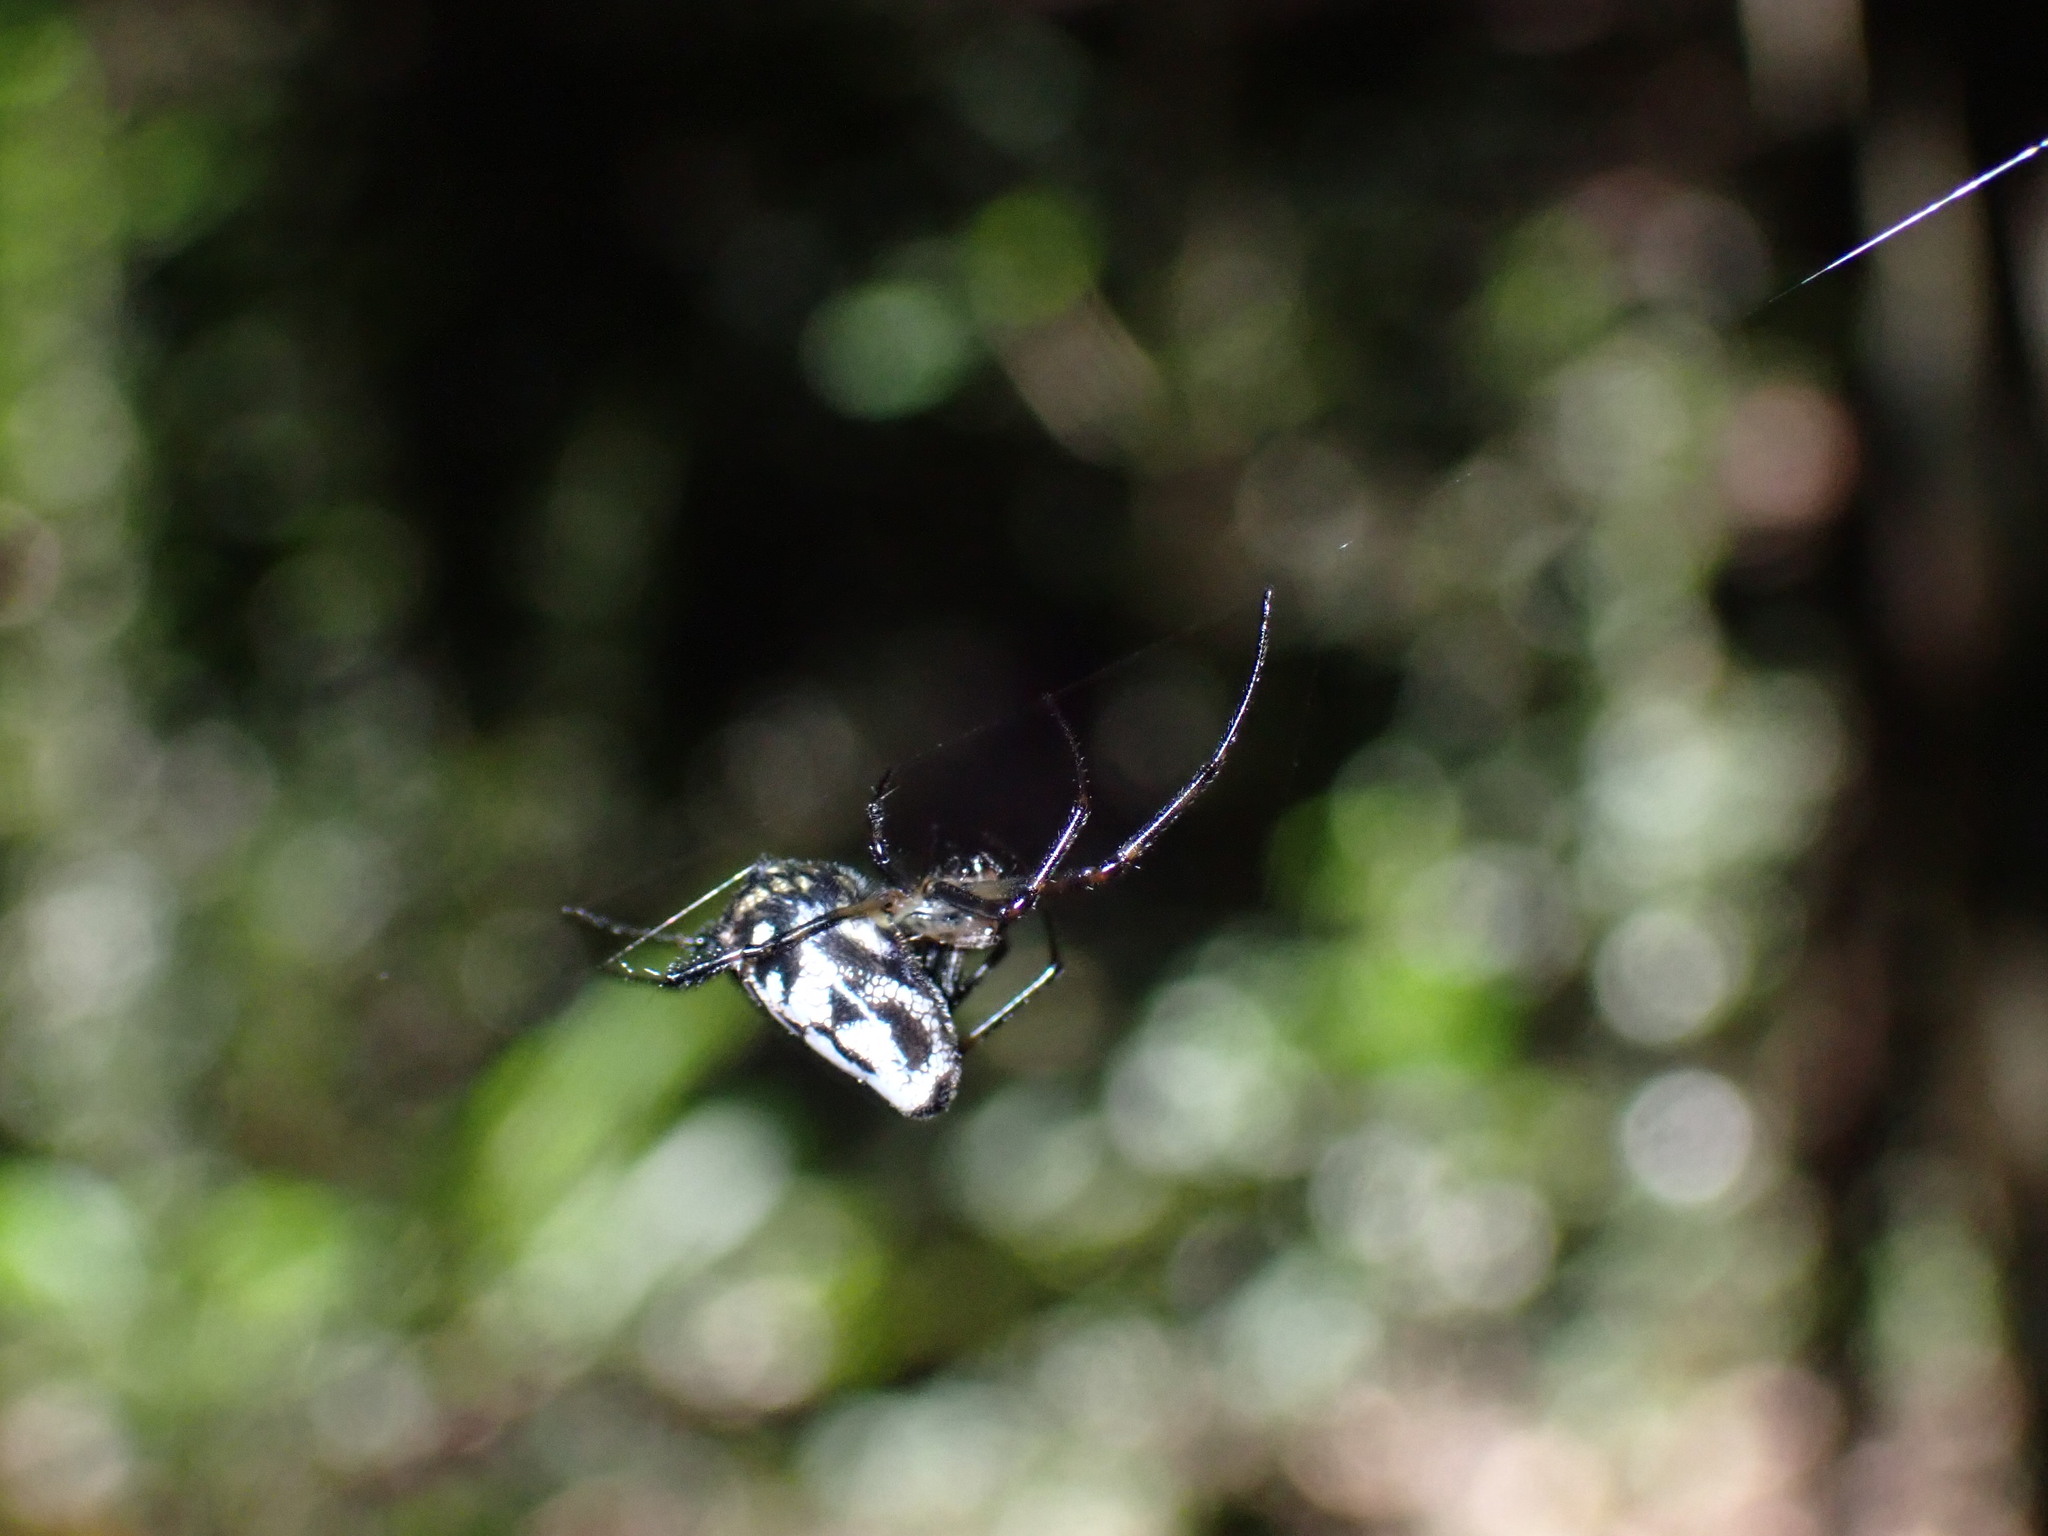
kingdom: Animalia
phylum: Arthropoda
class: Arachnida
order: Araneae
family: Tetragnathidae
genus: Leucauge
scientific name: Leucauge fastigata
